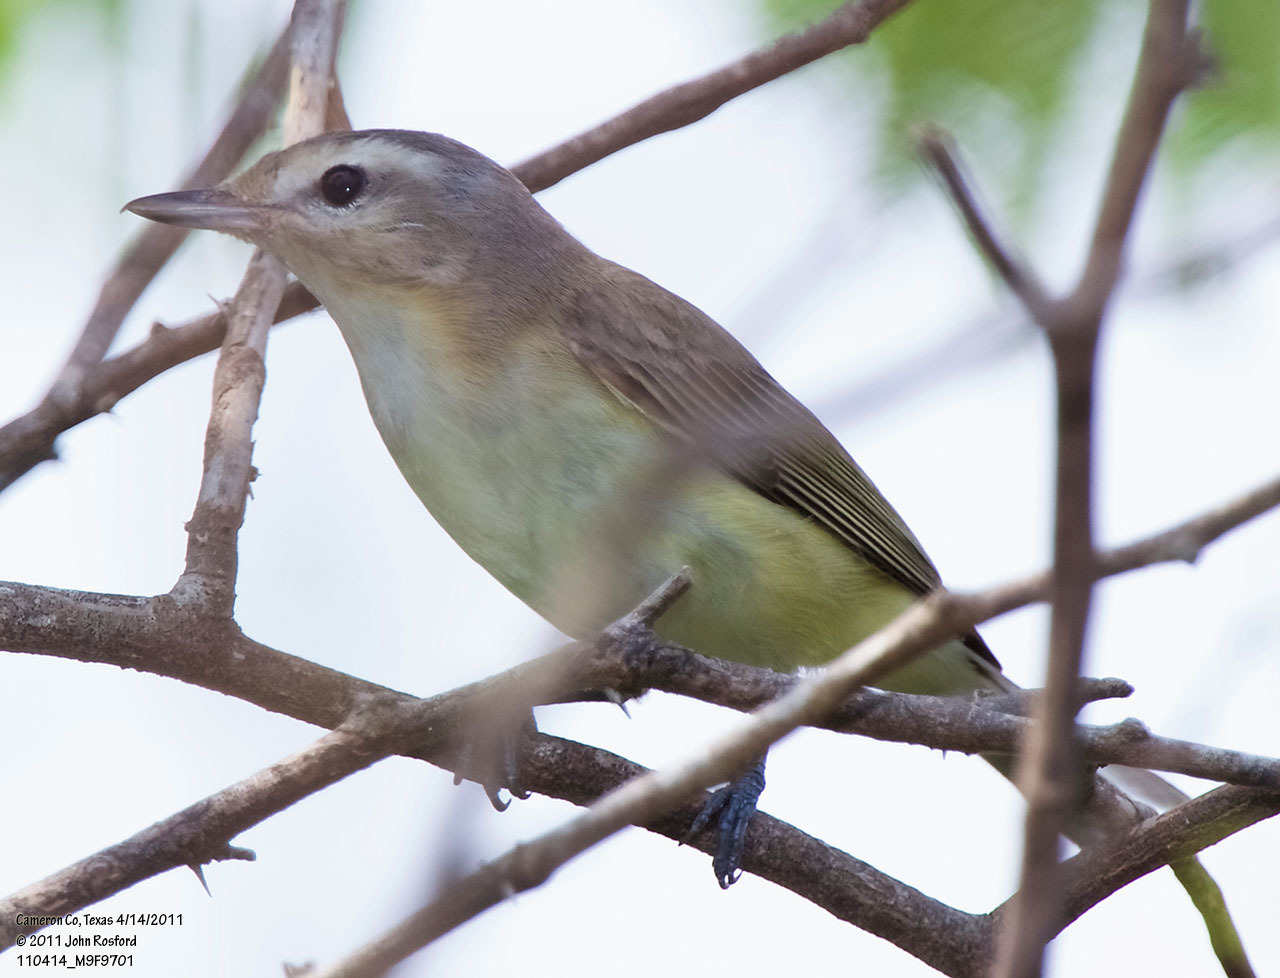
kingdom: Animalia
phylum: Chordata
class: Aves
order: Passeriformes
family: Vireonidae
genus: Vireo
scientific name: Vireo gilvus
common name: Warbling vireo
